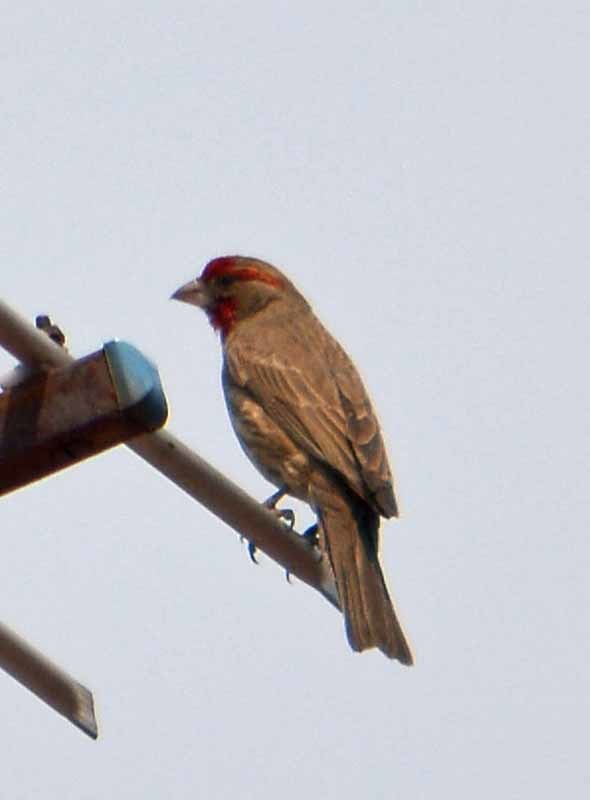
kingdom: Animalia
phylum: Chordata
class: Aves
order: Passeriformes
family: Fringillidae
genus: Haemorhous
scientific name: Haemorhous mexicanus
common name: House finch
